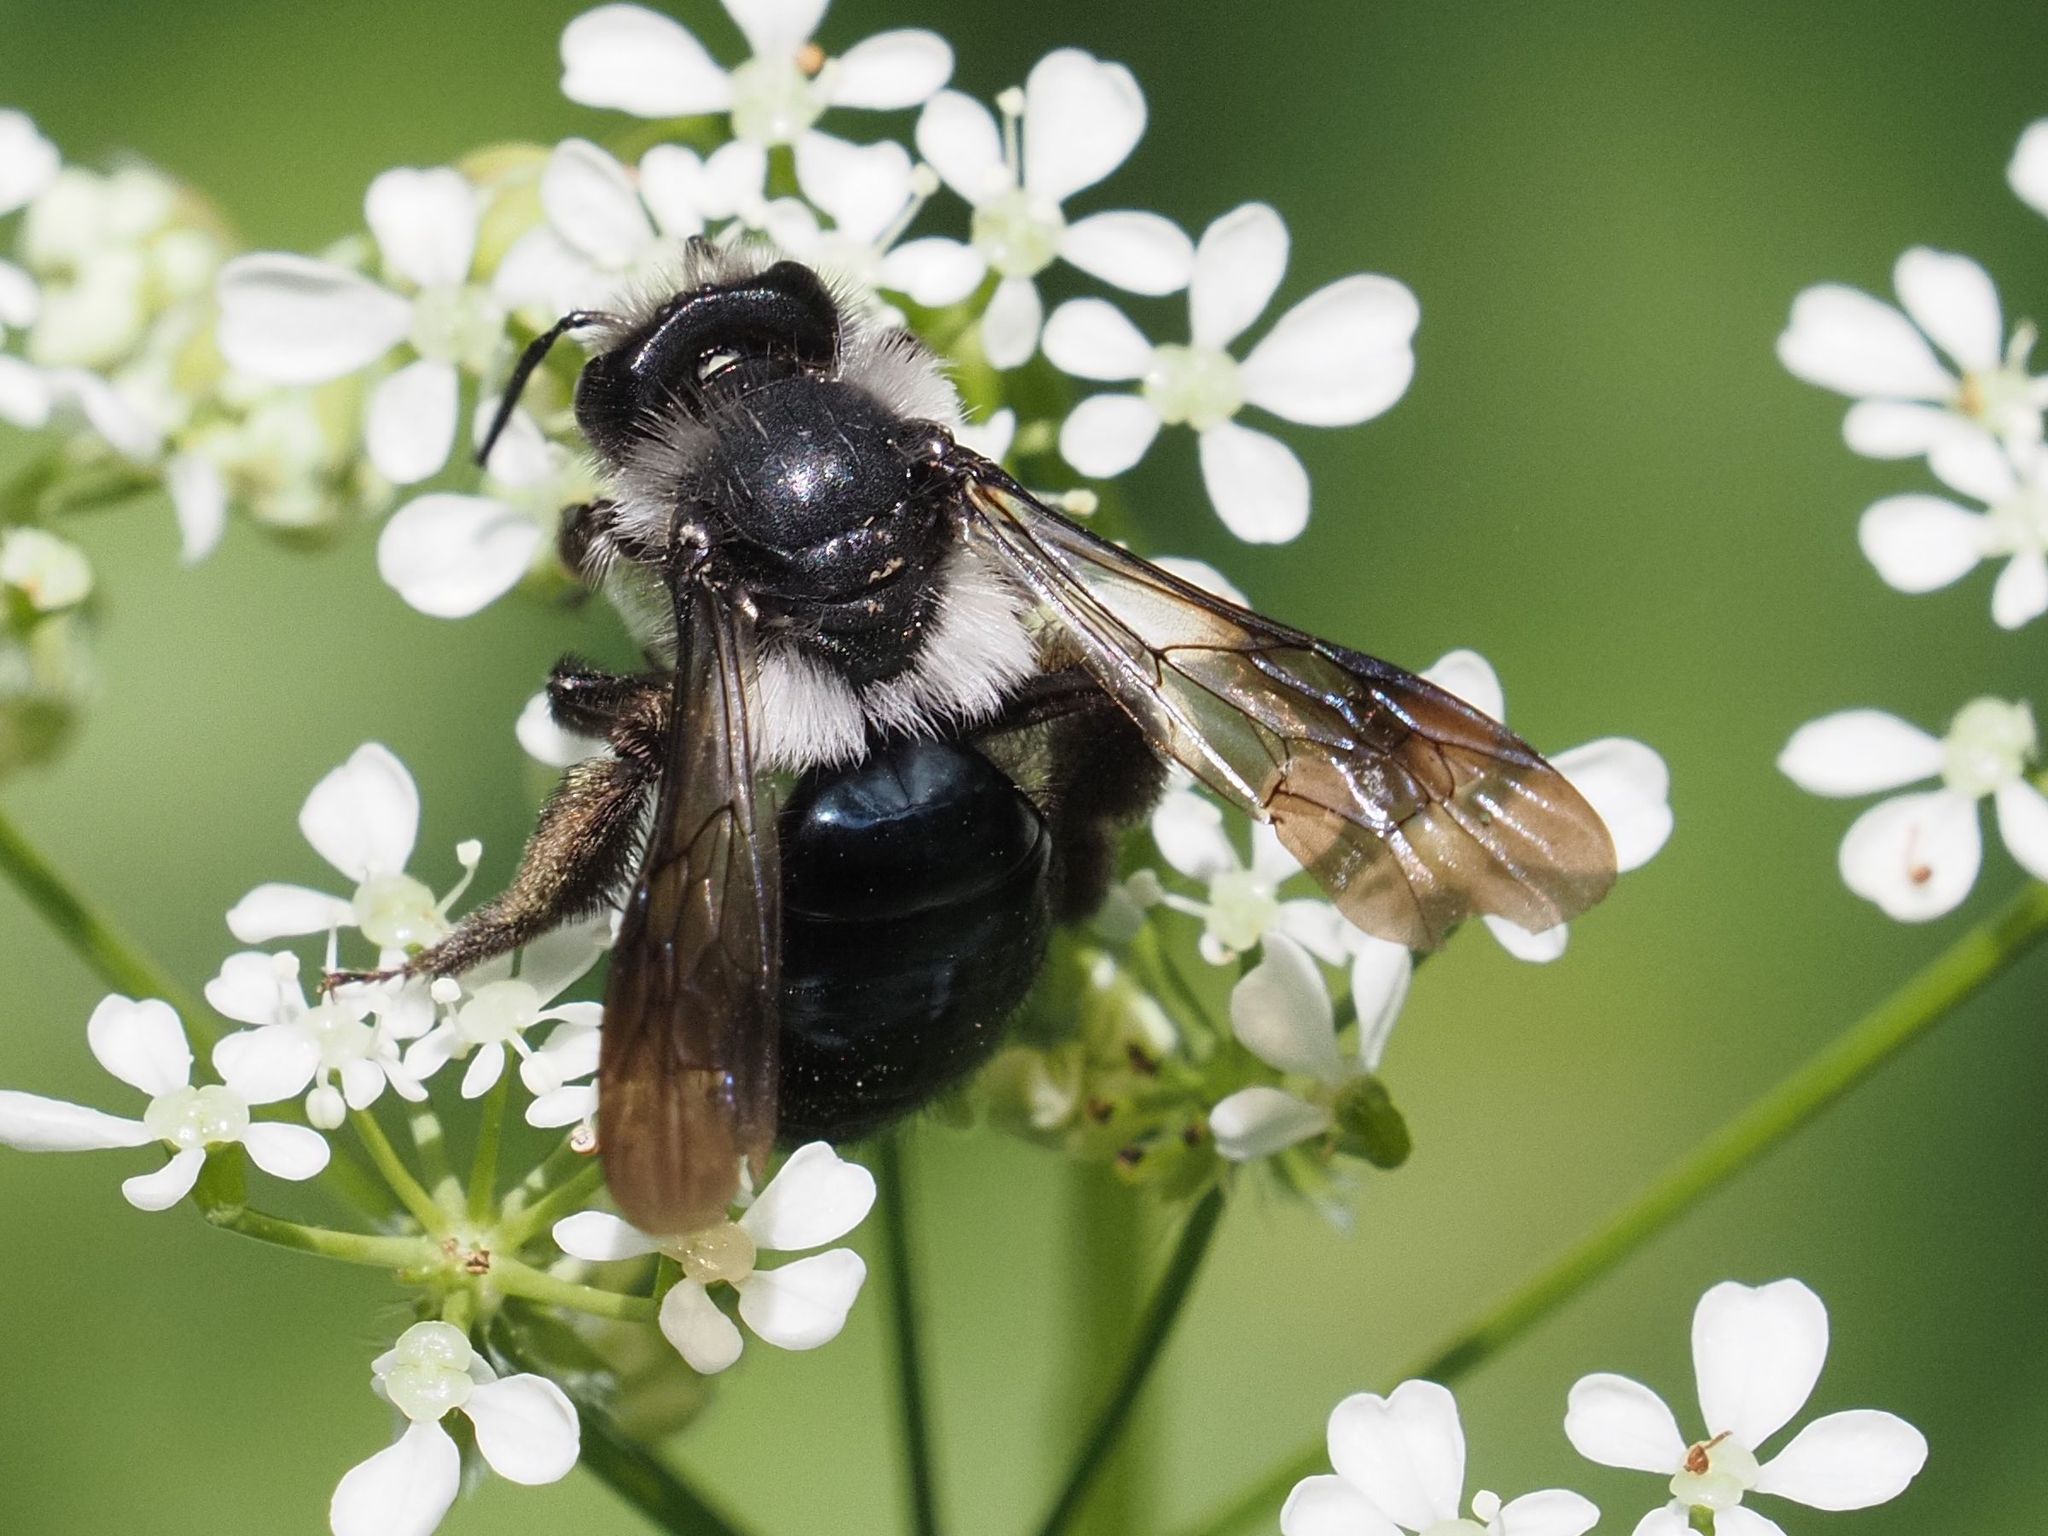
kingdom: Animalia
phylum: Arthropoda
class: Insecta
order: Hymenoptera
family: Andrenidae
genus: Andrena
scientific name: Andrena cineraria
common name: Ashy mining bee
